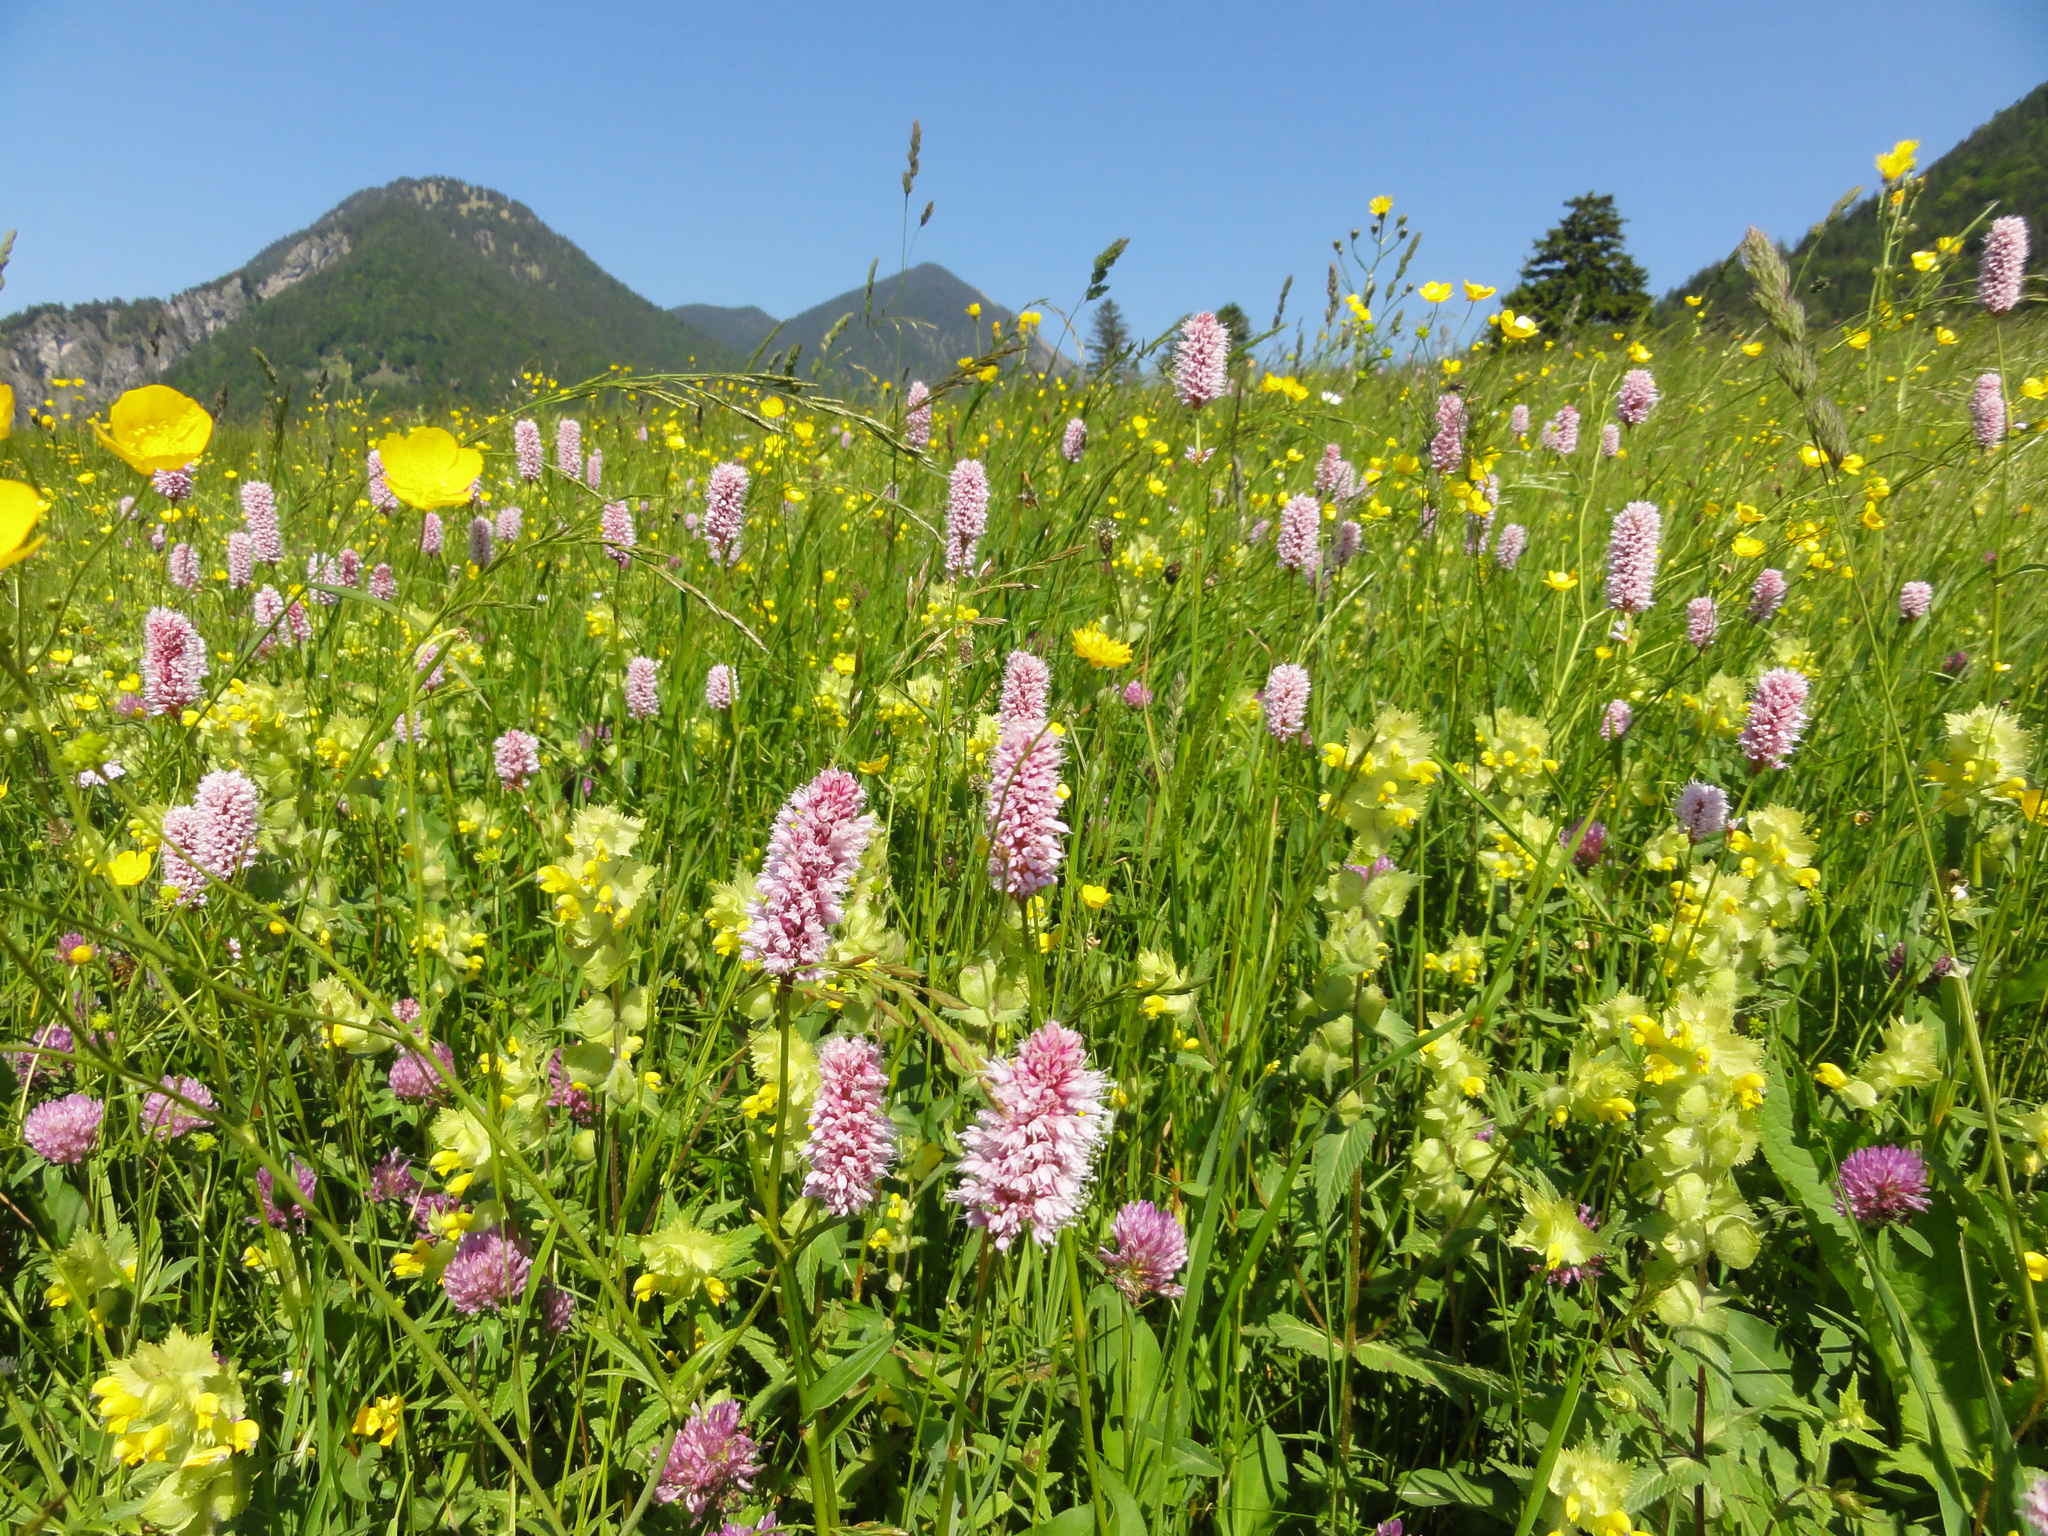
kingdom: Plantae
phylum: Tracheophyta
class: Magnoliopsida
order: Caryophyllales
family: Polygonaceae
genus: Bistorta
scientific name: Bistorta officinalis
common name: Common bistort
